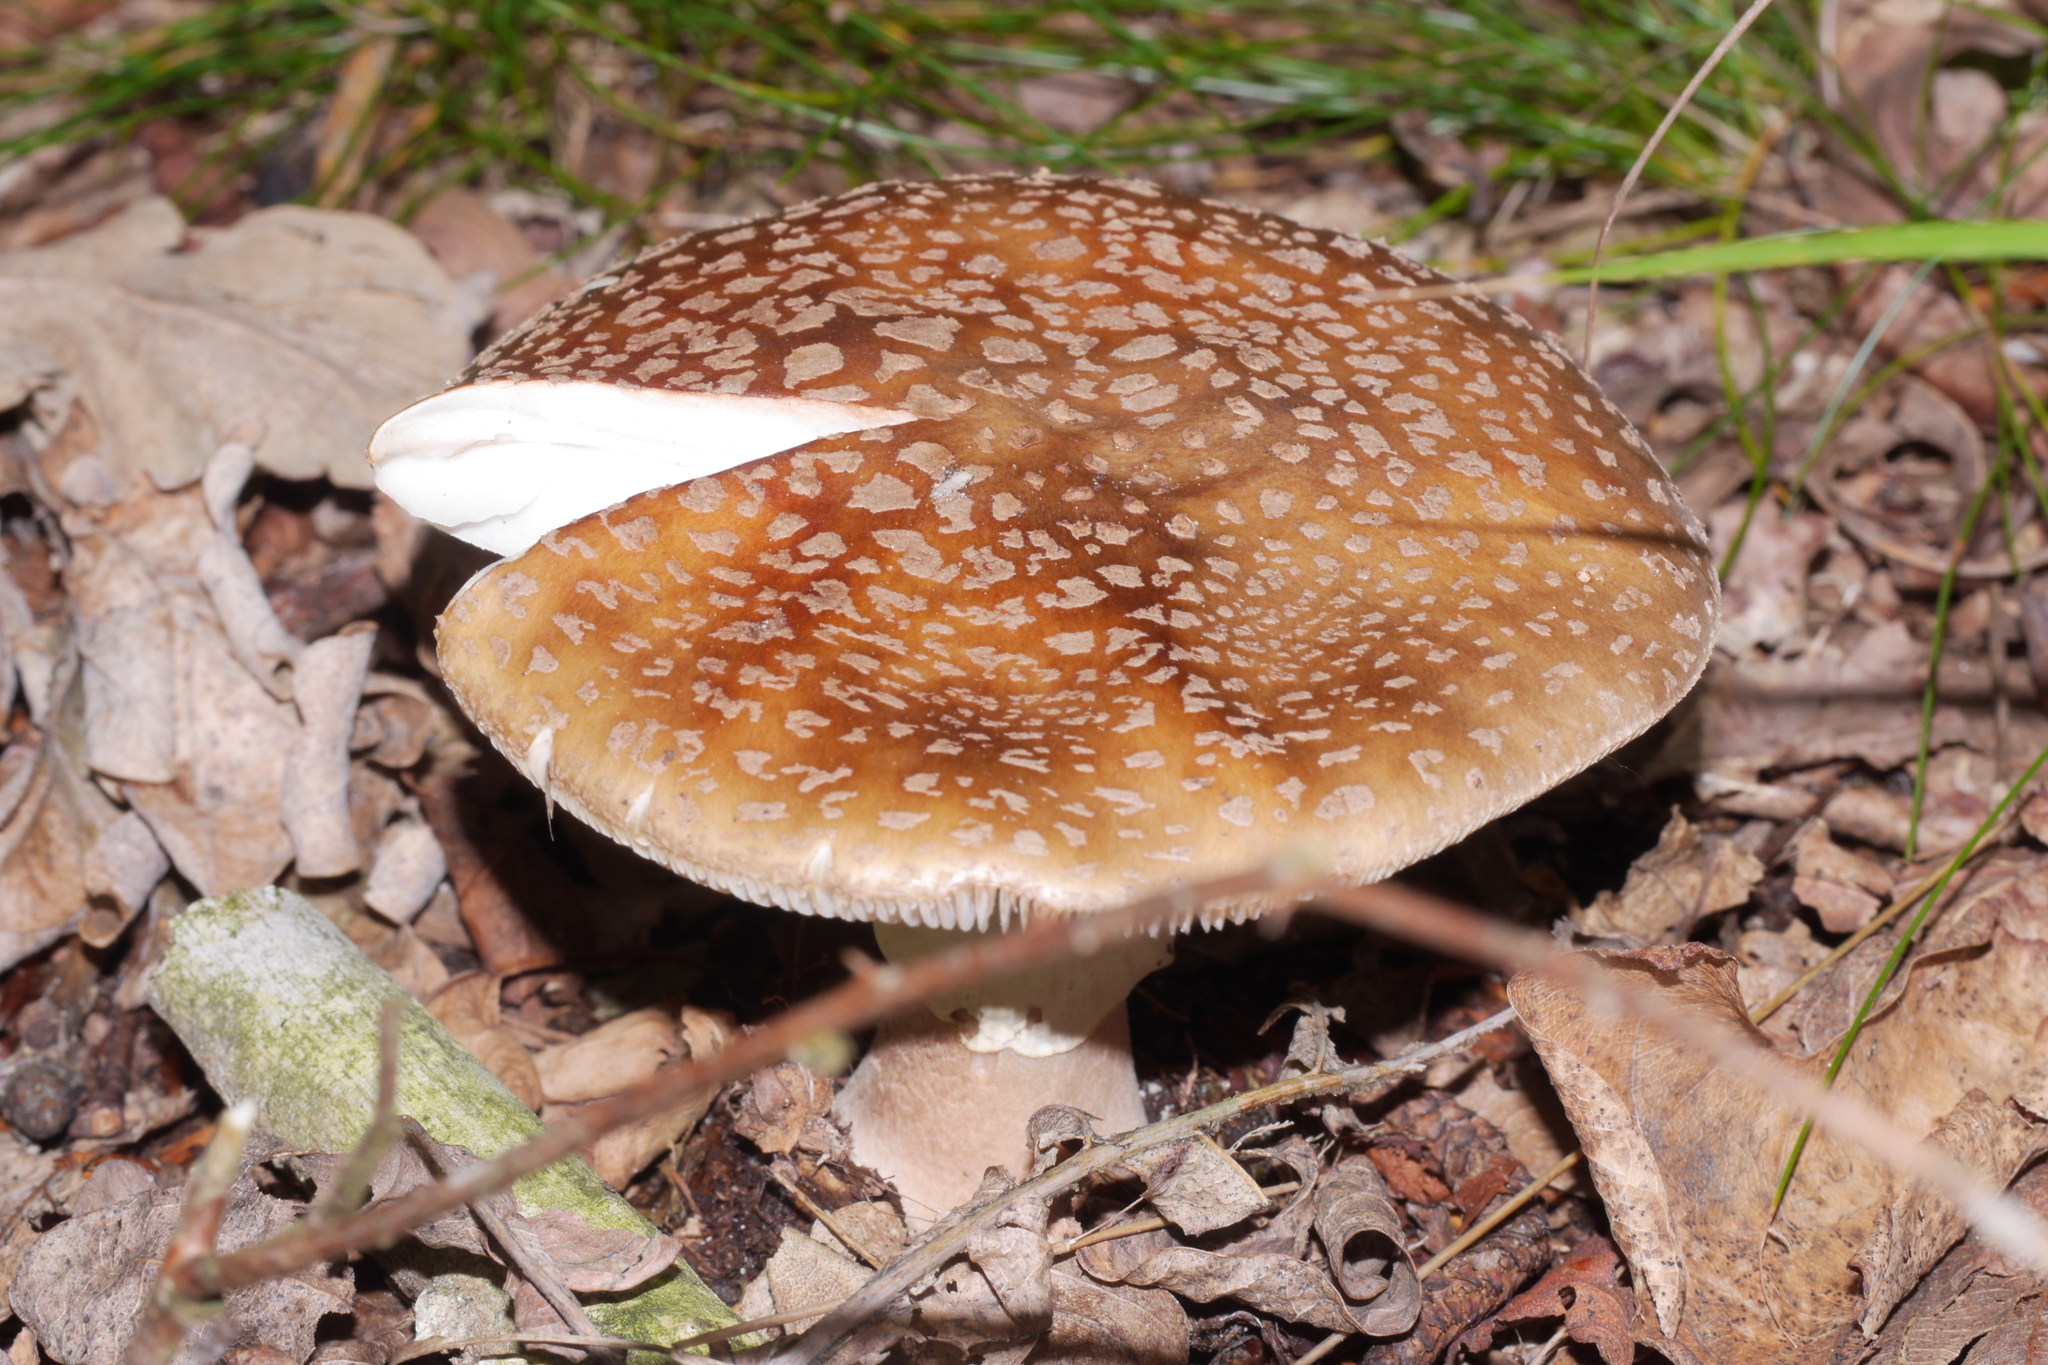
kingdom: Fungi
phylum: Basidiomycota
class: Agaricomycetes
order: Agaricales
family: Amanitaceae
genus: Amanita
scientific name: Amanita rubescens
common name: Blusher
